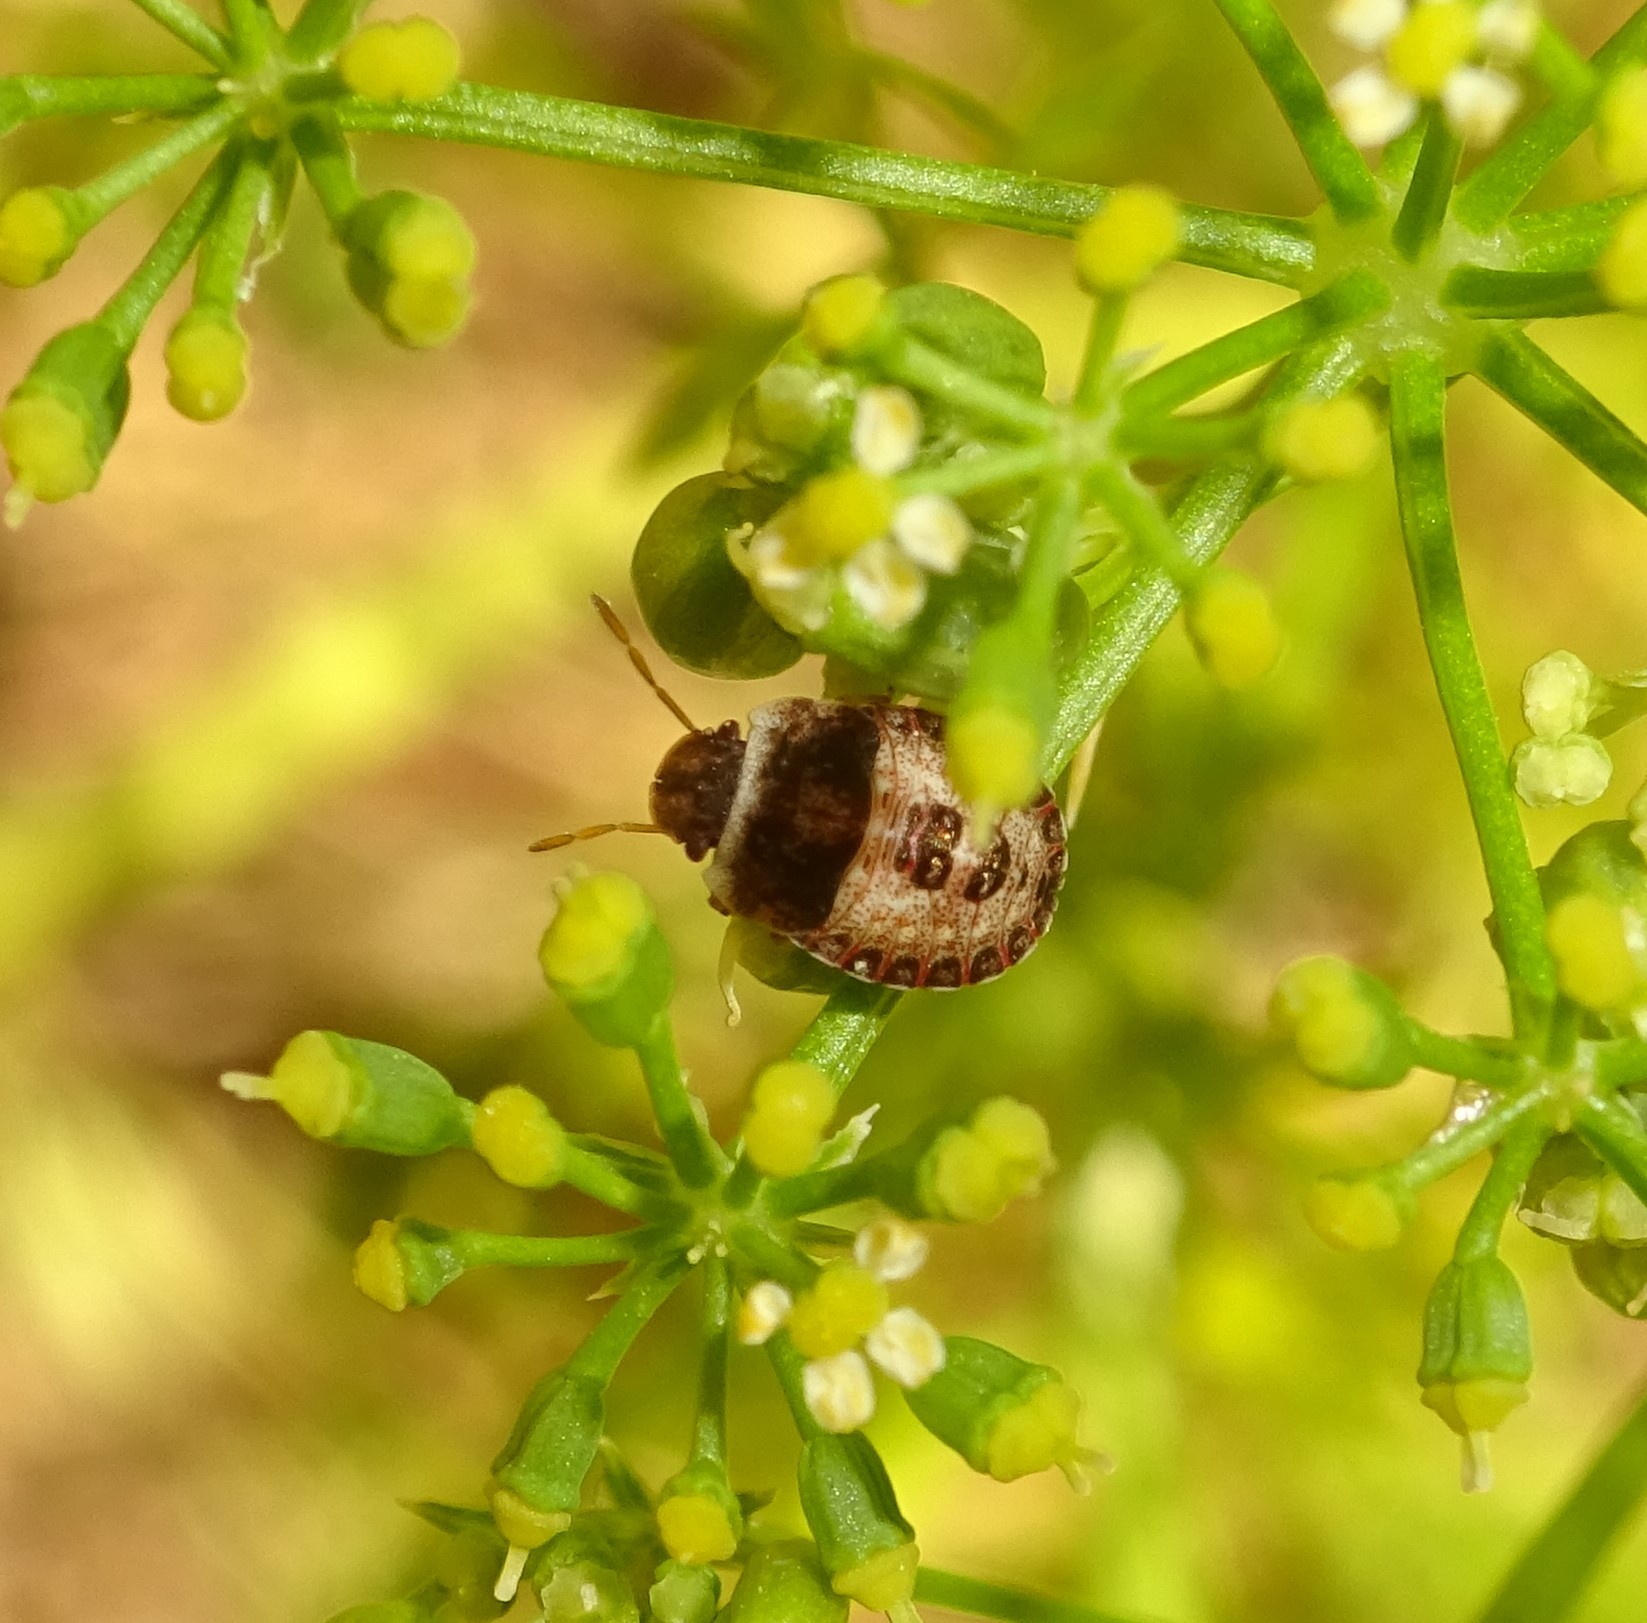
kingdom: Animalia
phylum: Arthropoda
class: Insecta
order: Hemiptera
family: Pentatomidae
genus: Sciocoris
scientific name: Sciocoris macrocephalus
